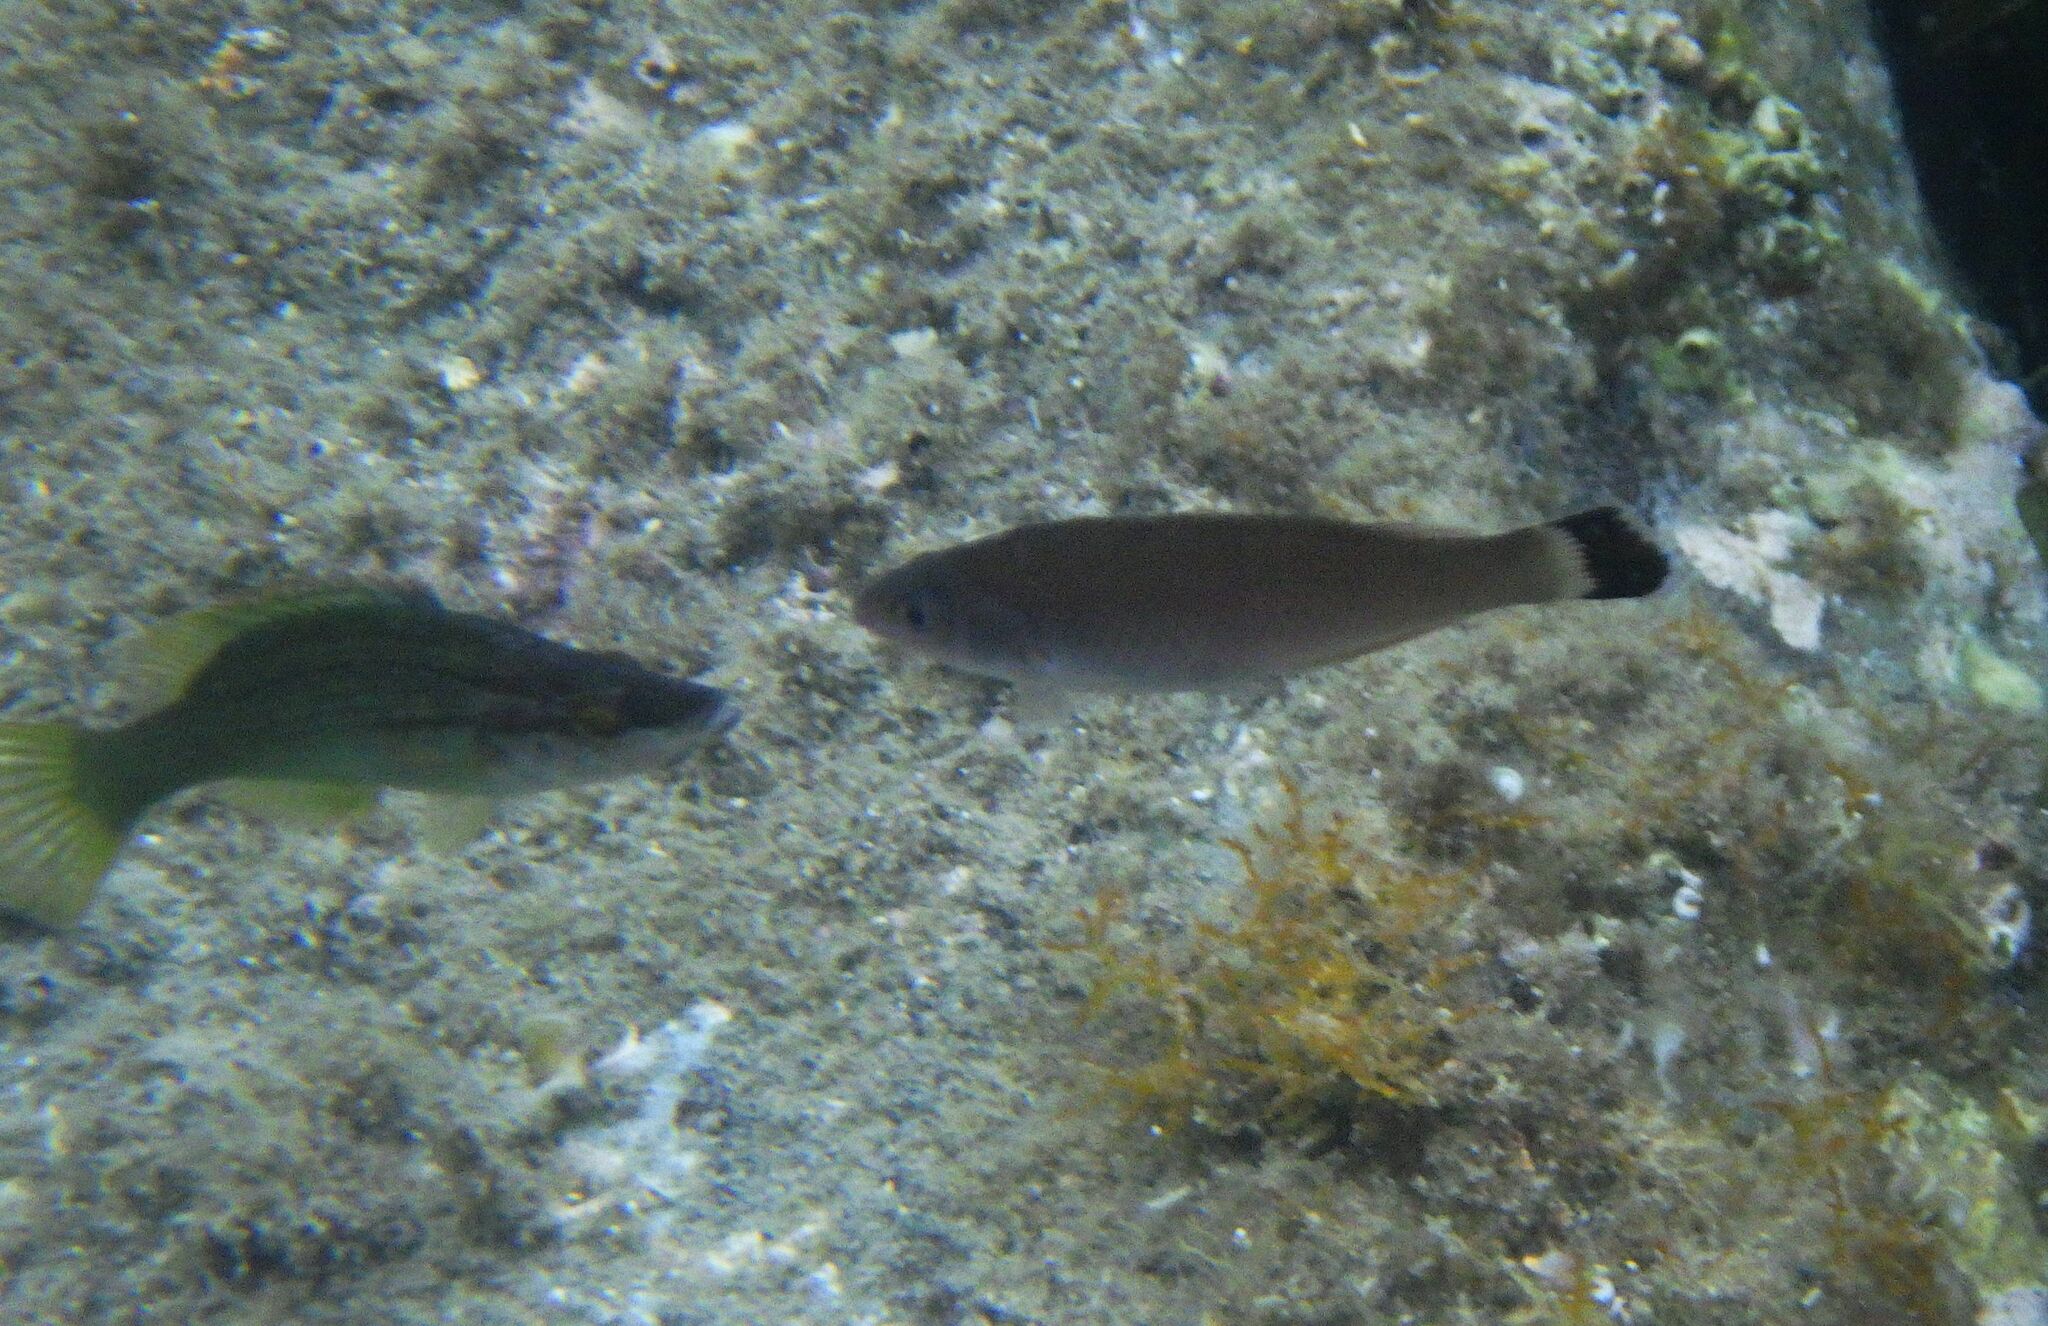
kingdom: Animalia
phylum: Chordata
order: Perciformes
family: Labridae
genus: Centrolabrus
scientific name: Centrolabrus melanocercus
